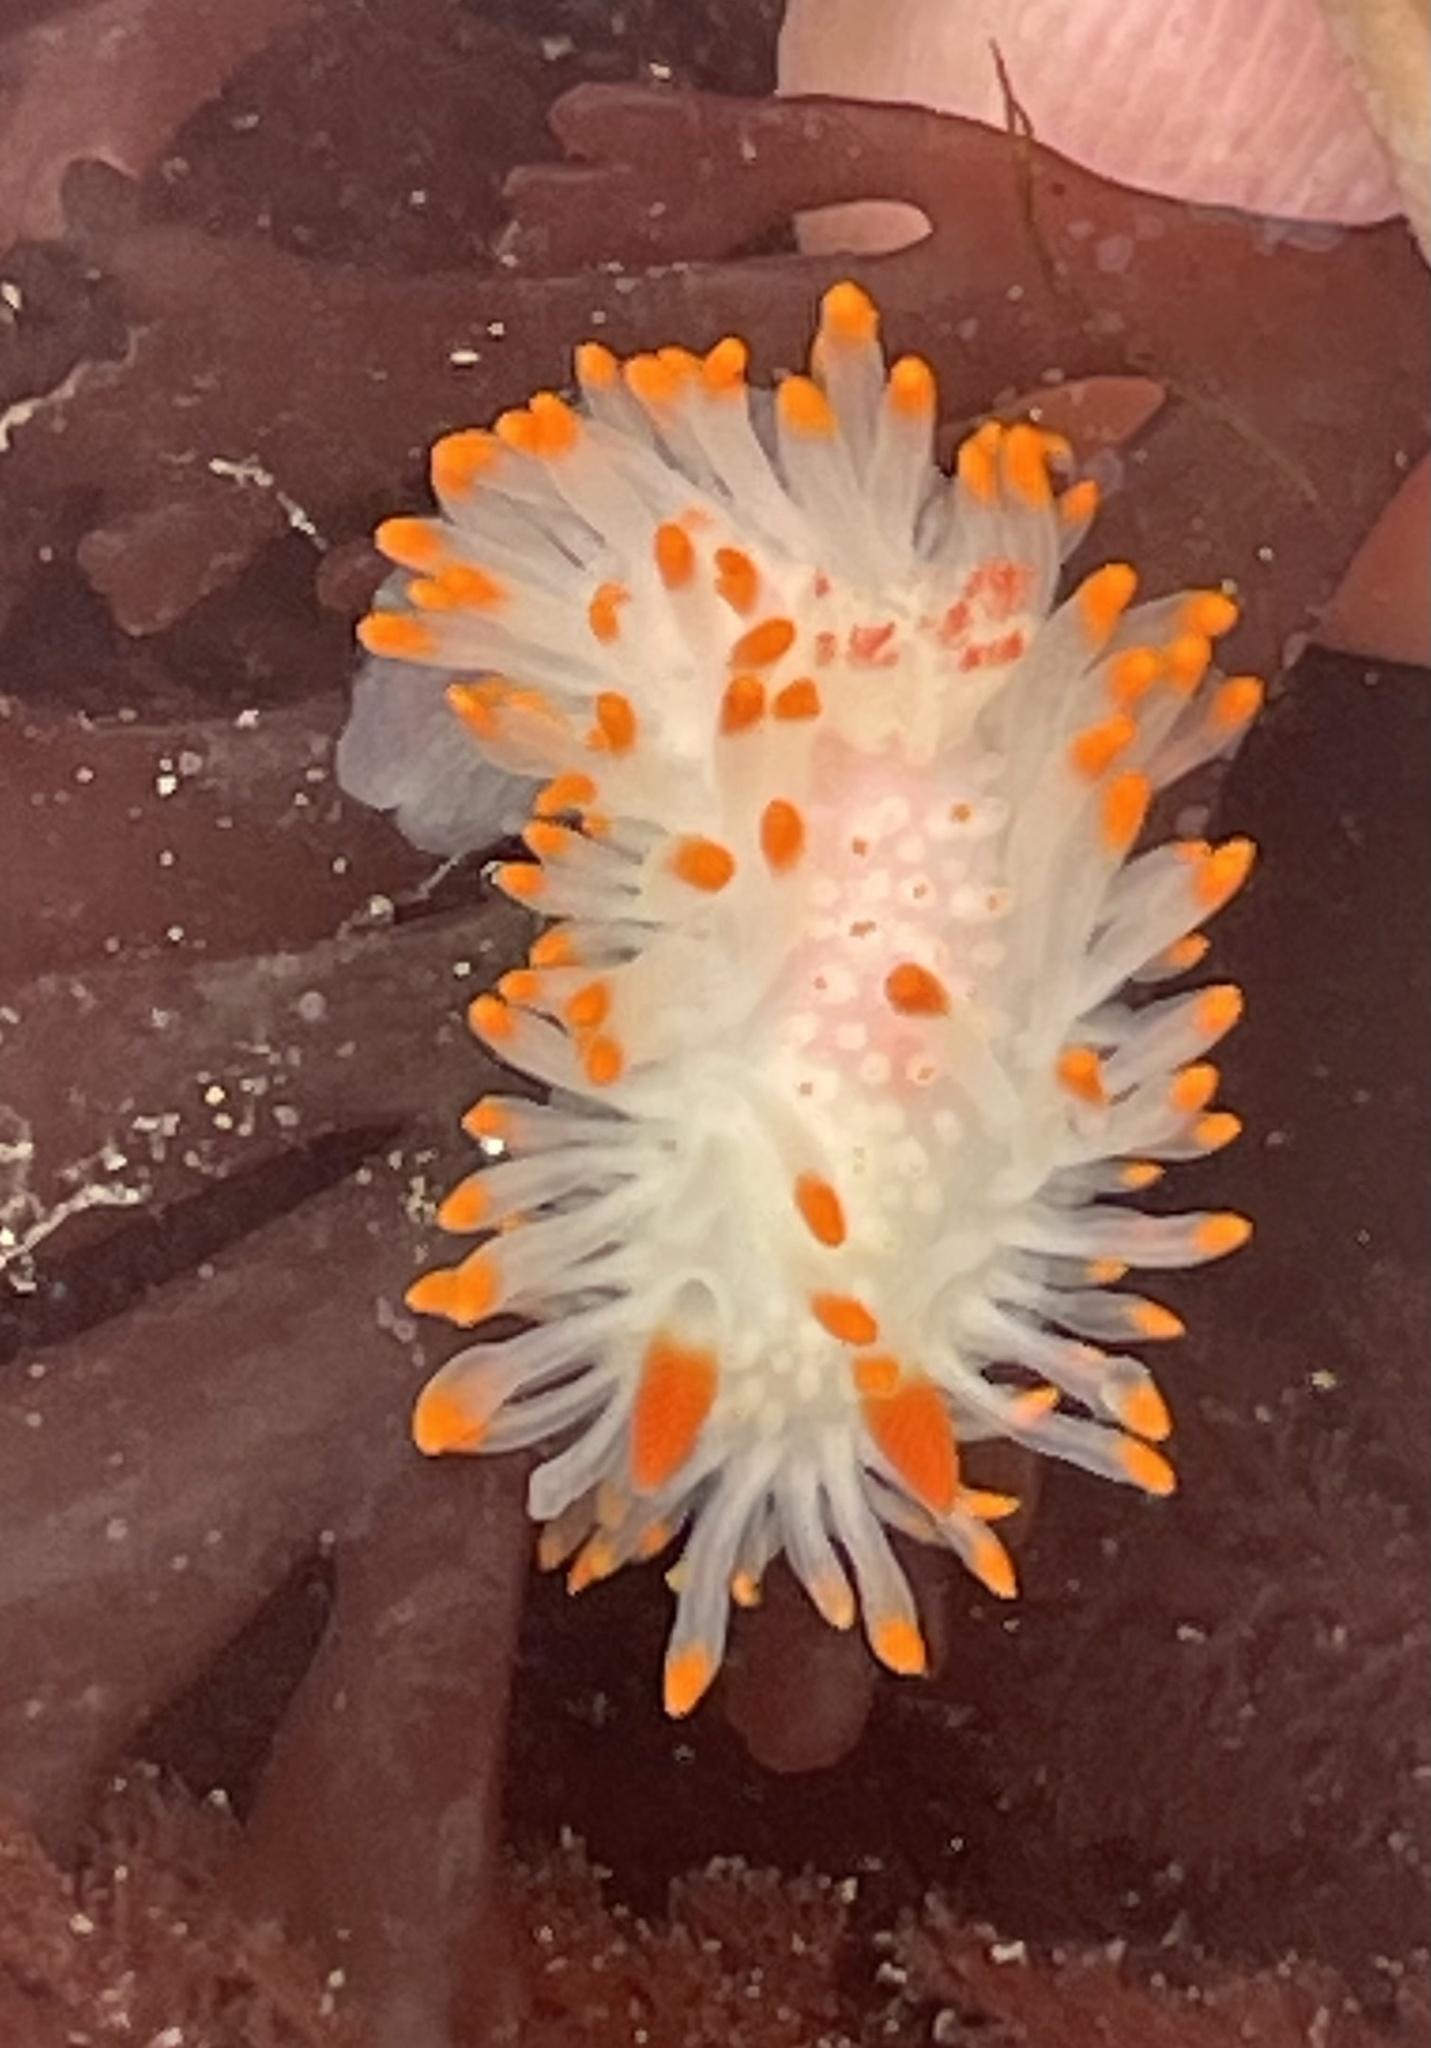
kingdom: Animalia
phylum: Mollusca
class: Gastropoda
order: Nudibranchia
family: Polyceridae
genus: Limacia
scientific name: Limacia cockerelli
